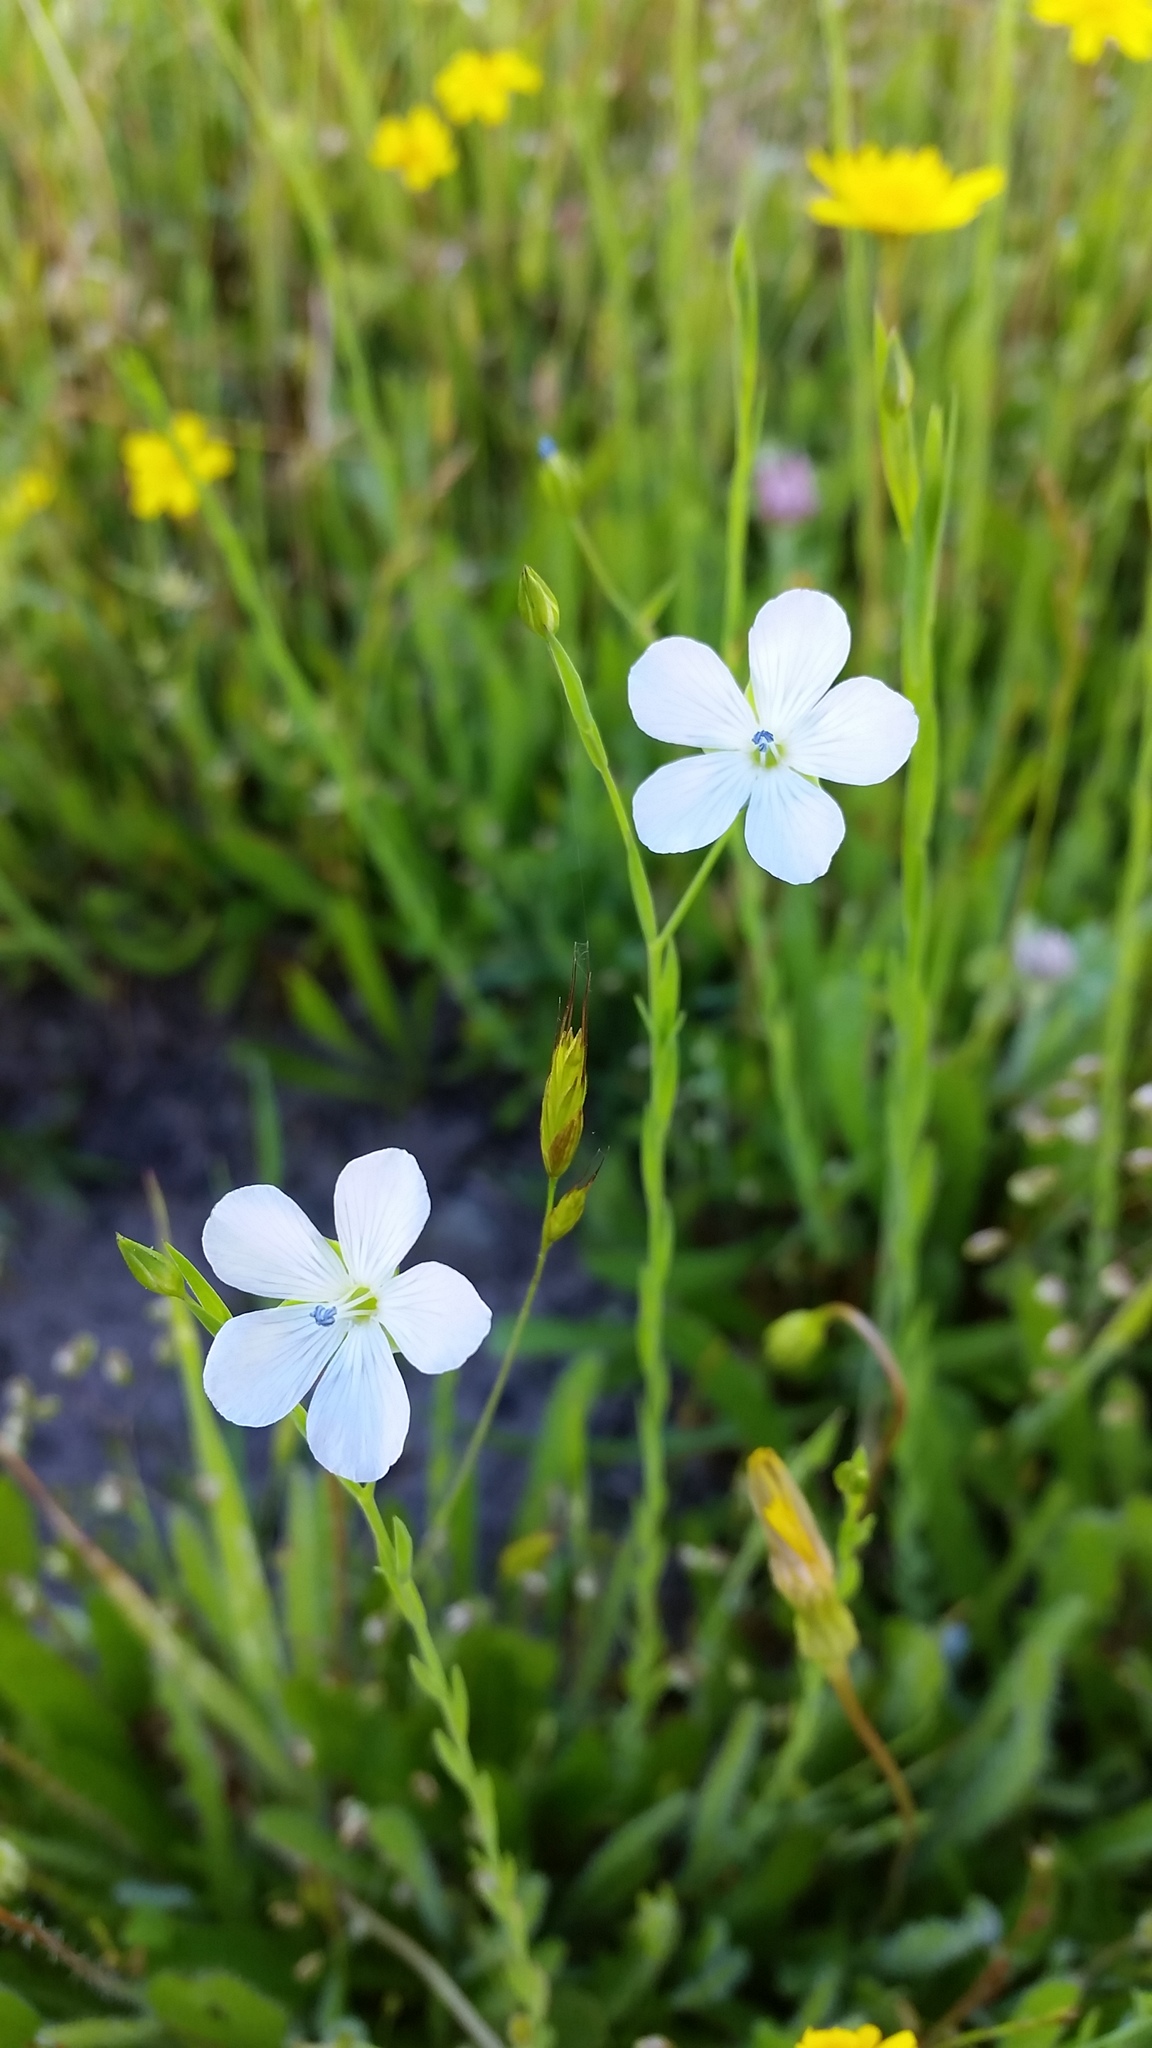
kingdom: Plantae
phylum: Tracheophyta
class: Magnoliopsida
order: Malpighiales
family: Linaceae
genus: Linum
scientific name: Linum bienne
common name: Pale flax
